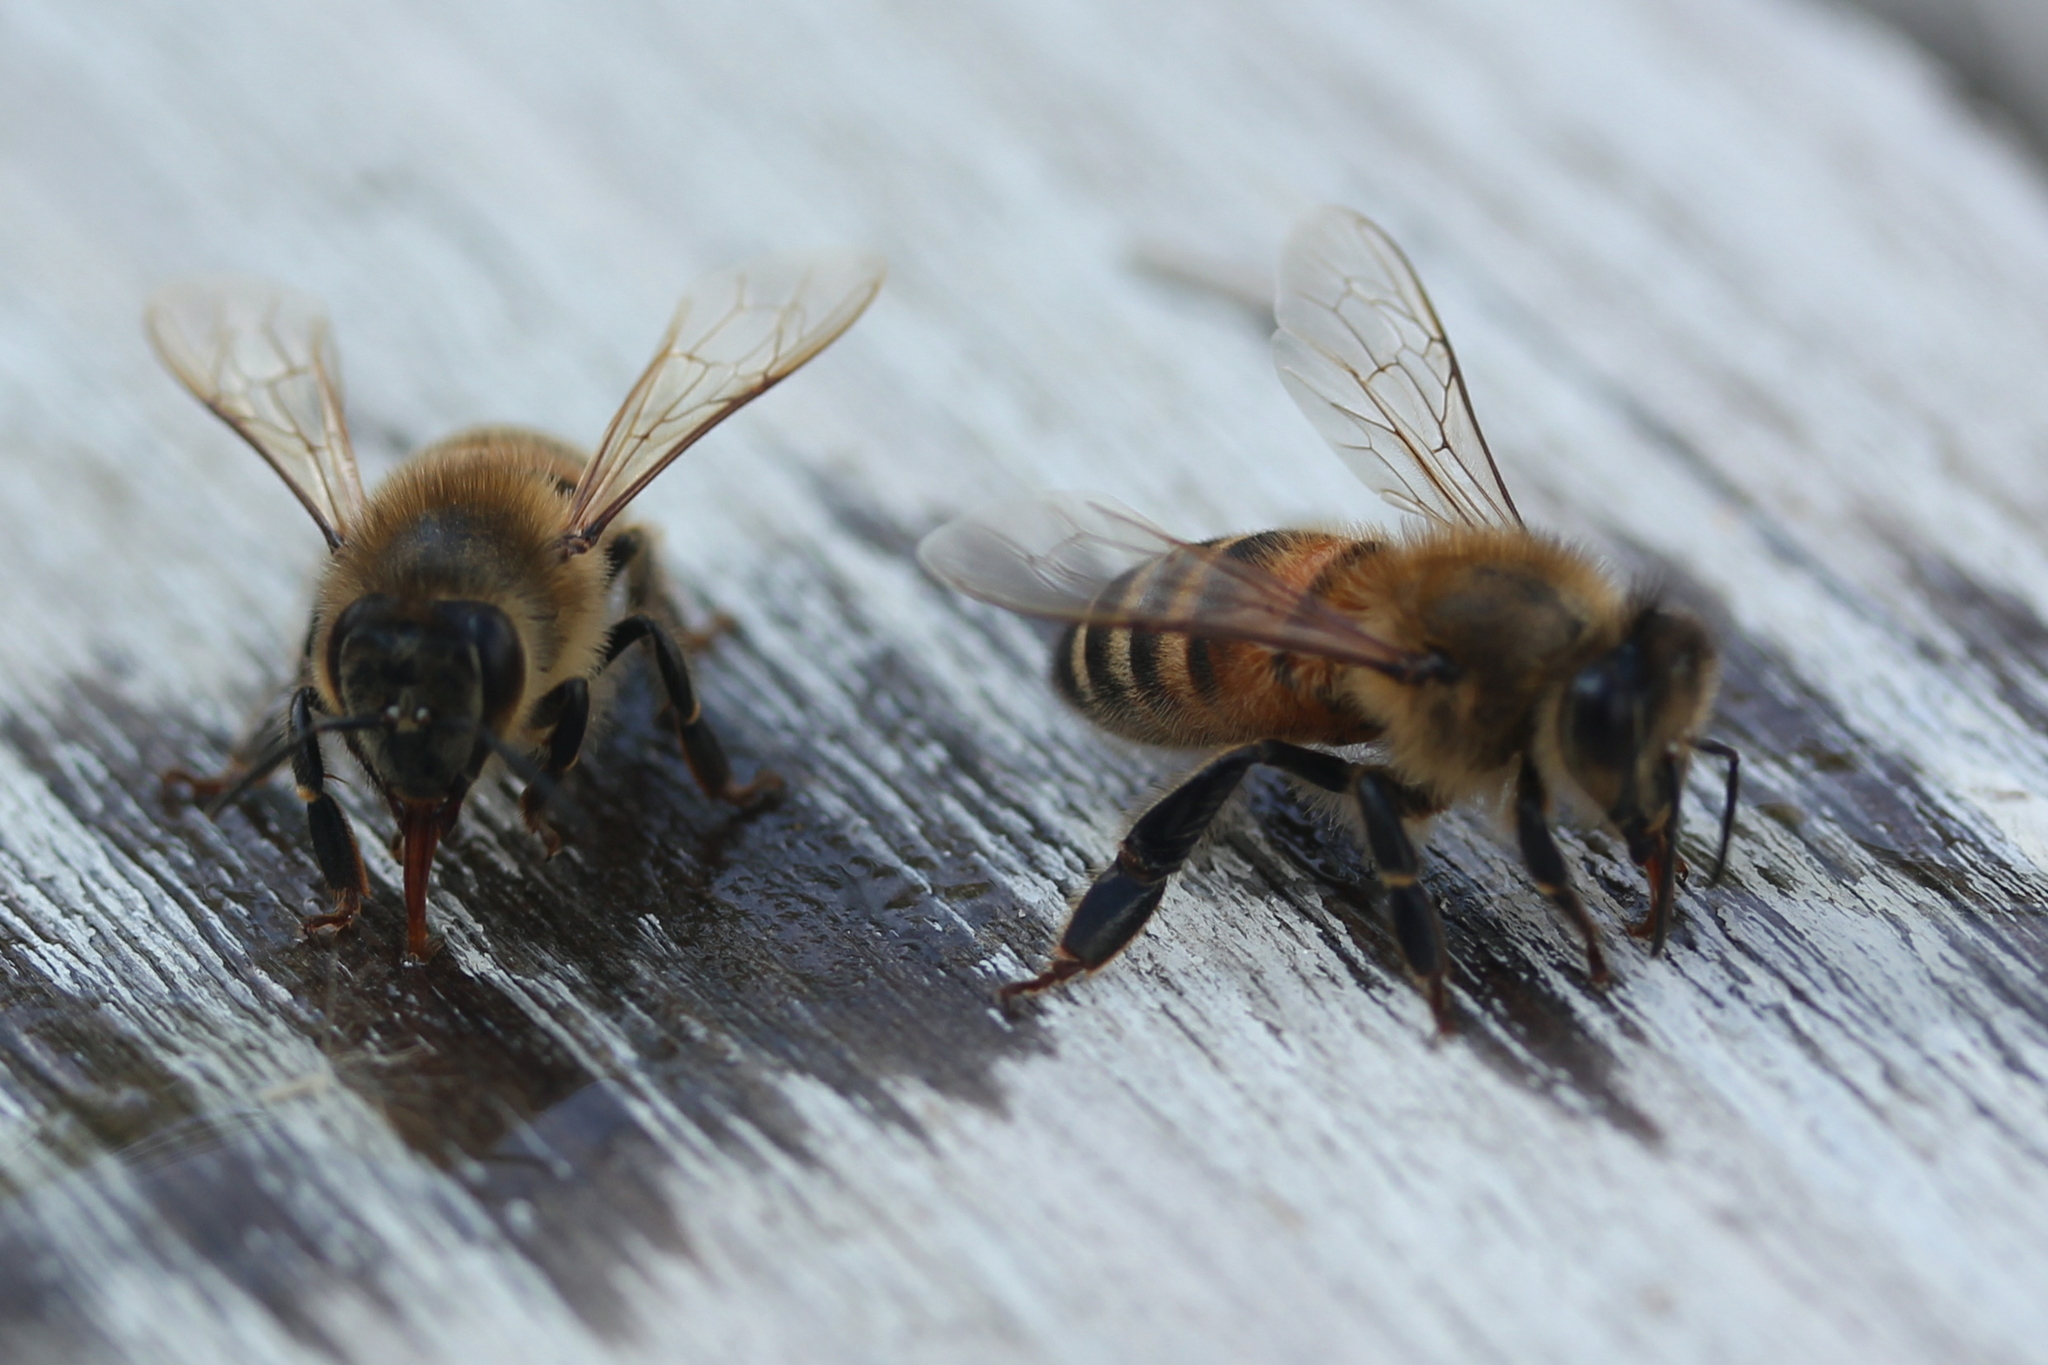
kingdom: Animalia
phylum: Arthropoda
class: Insecta
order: Hymenoptera
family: Apidae
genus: Apis
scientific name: Apis mellifera
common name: Honey bee
